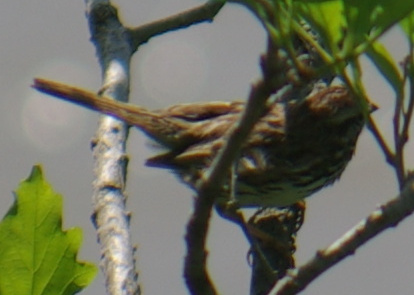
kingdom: Animalia
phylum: Chordata
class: Aves
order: Passeriformes
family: Passerellidae
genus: Melospiza
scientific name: Melospiza melodia
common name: Song sparrow
